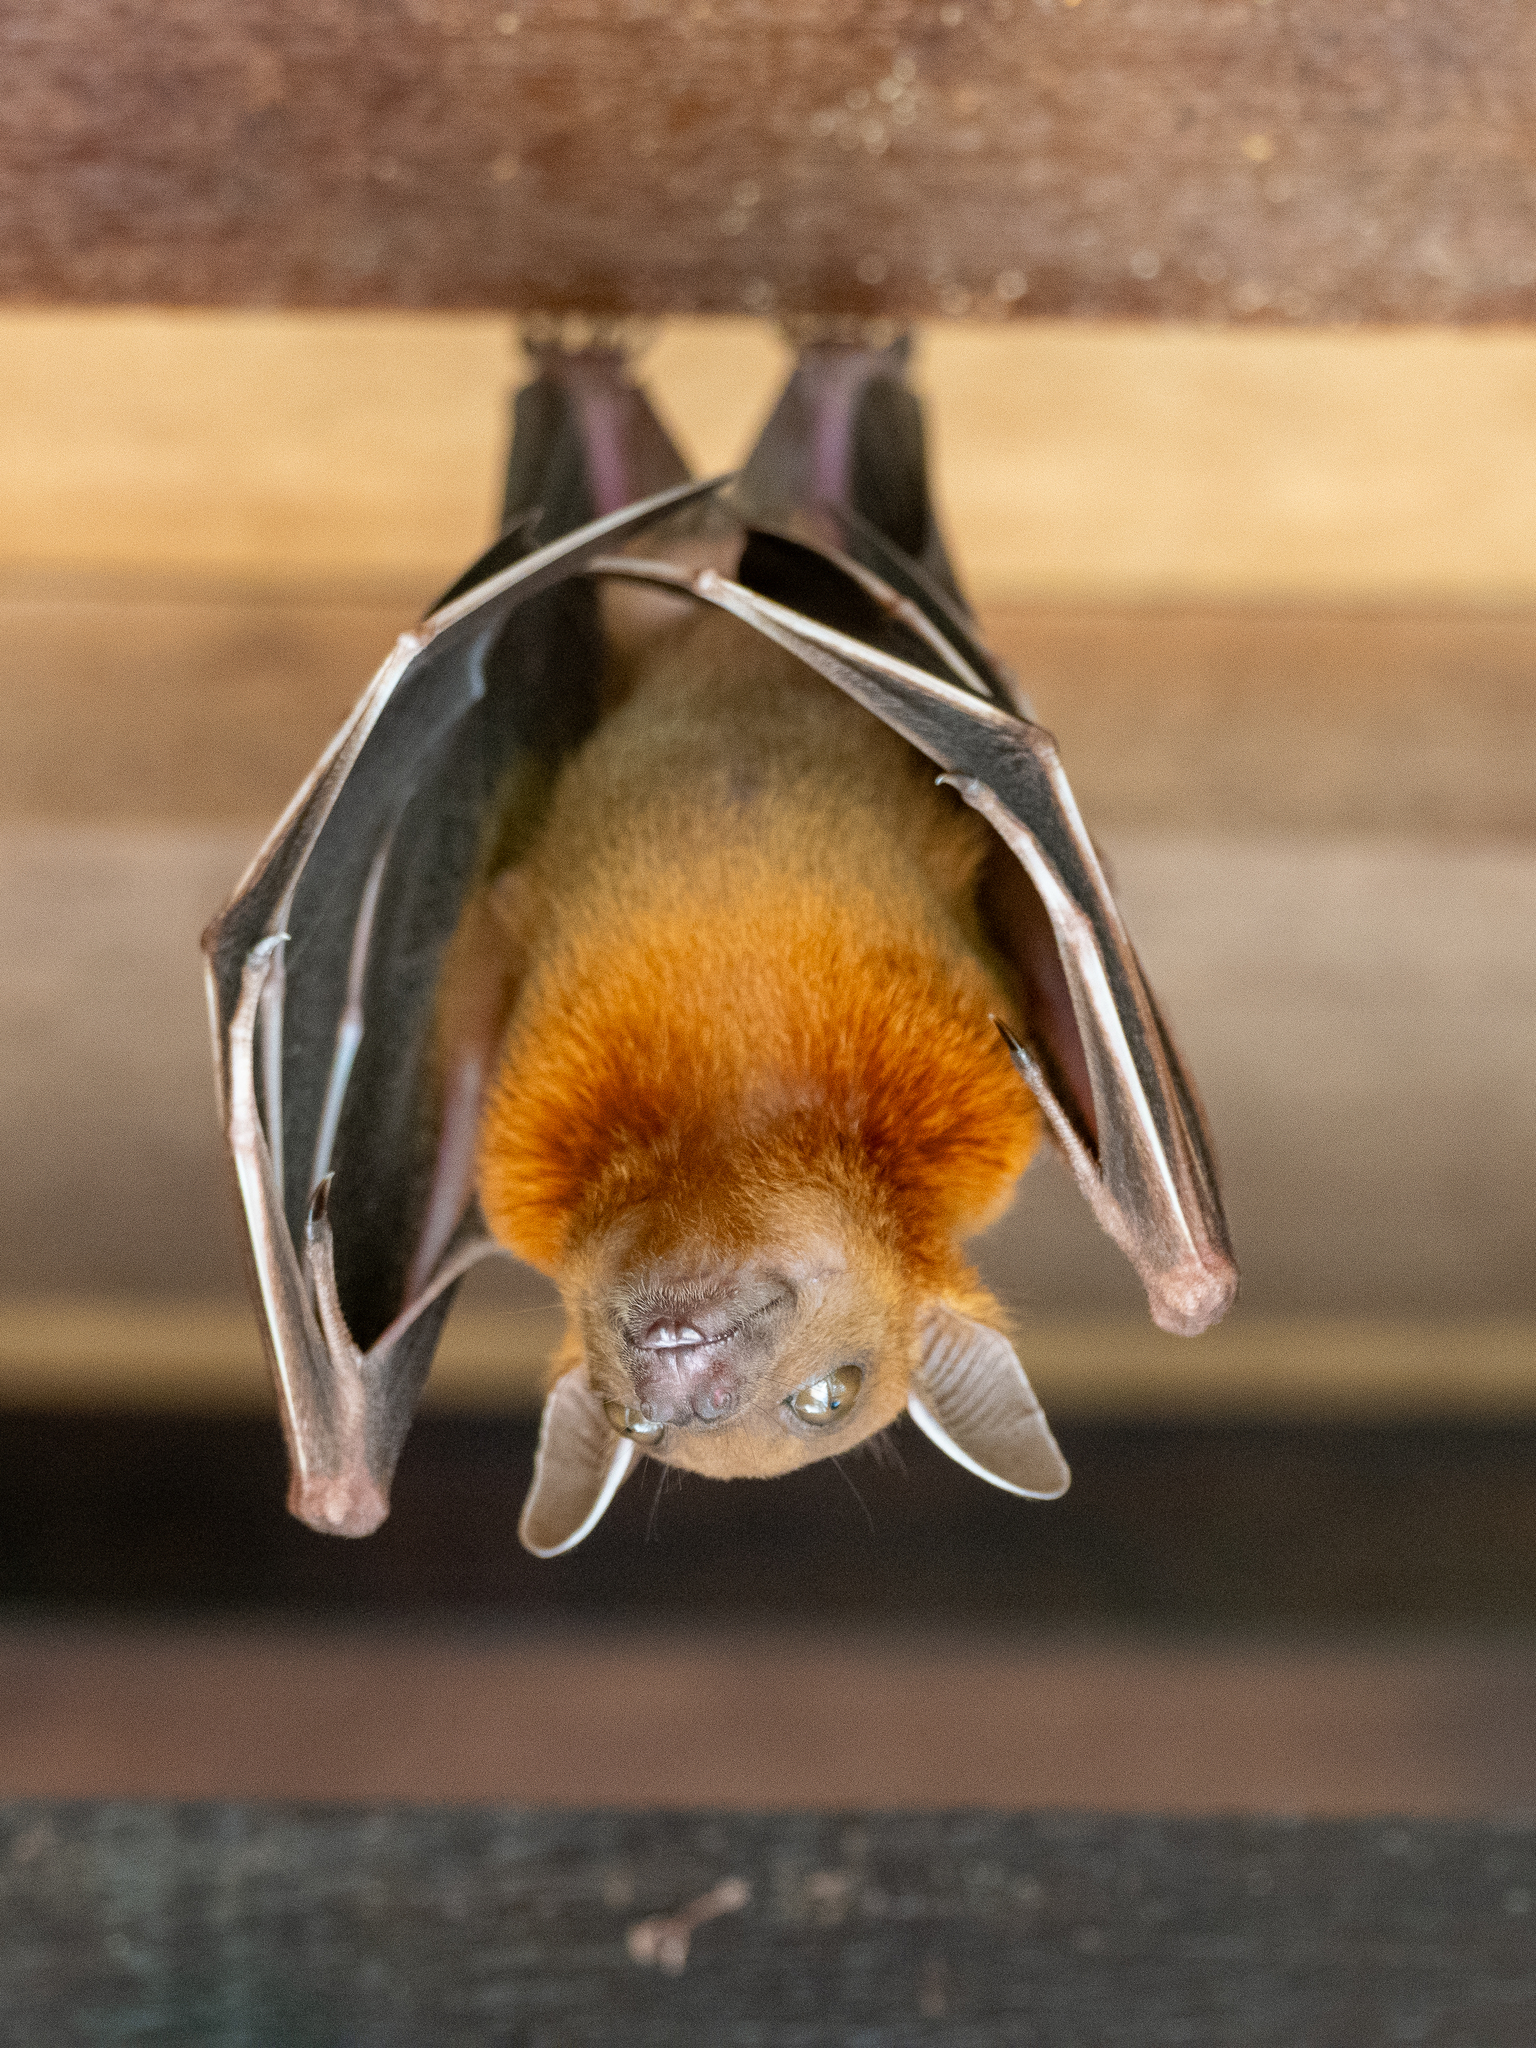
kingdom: Animalia
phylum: Chordata
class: Mammalia
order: Chiroptera
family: Pteropodidae
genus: Cynopterus
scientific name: Cynopterus brachyotis
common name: Lesser short-nosed fruit bat
